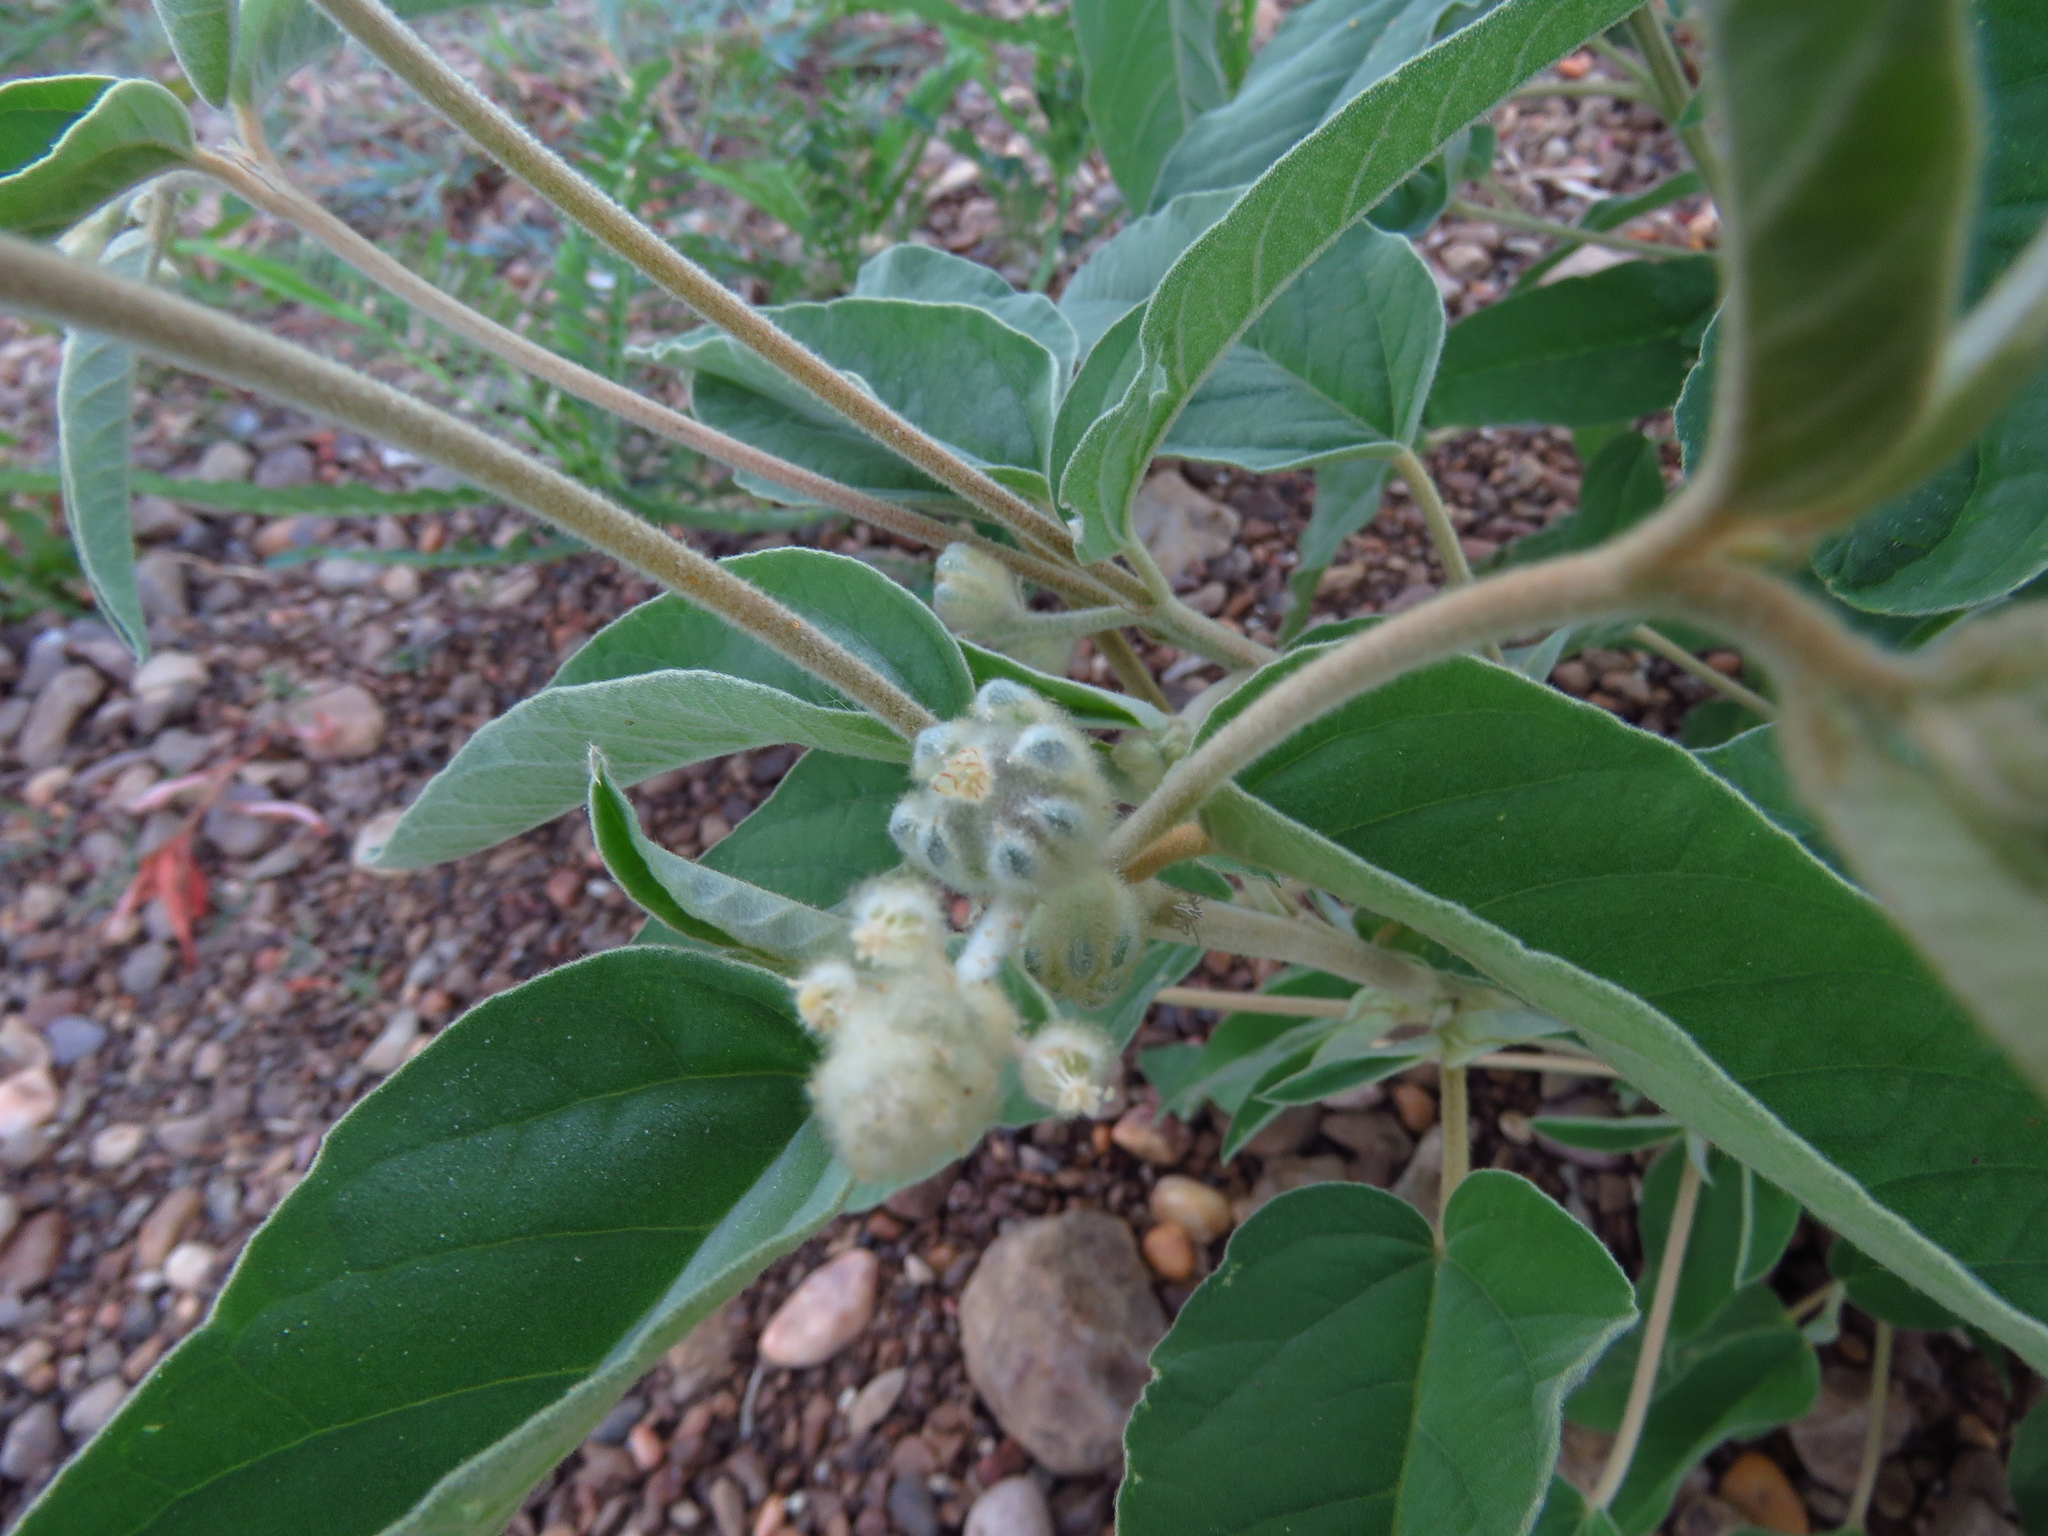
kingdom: Plantae
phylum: Tracheophyta
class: Magnoliopsida
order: Malpighiales
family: Euphorbiaceae
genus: Croton
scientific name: Croton lindheimeri
